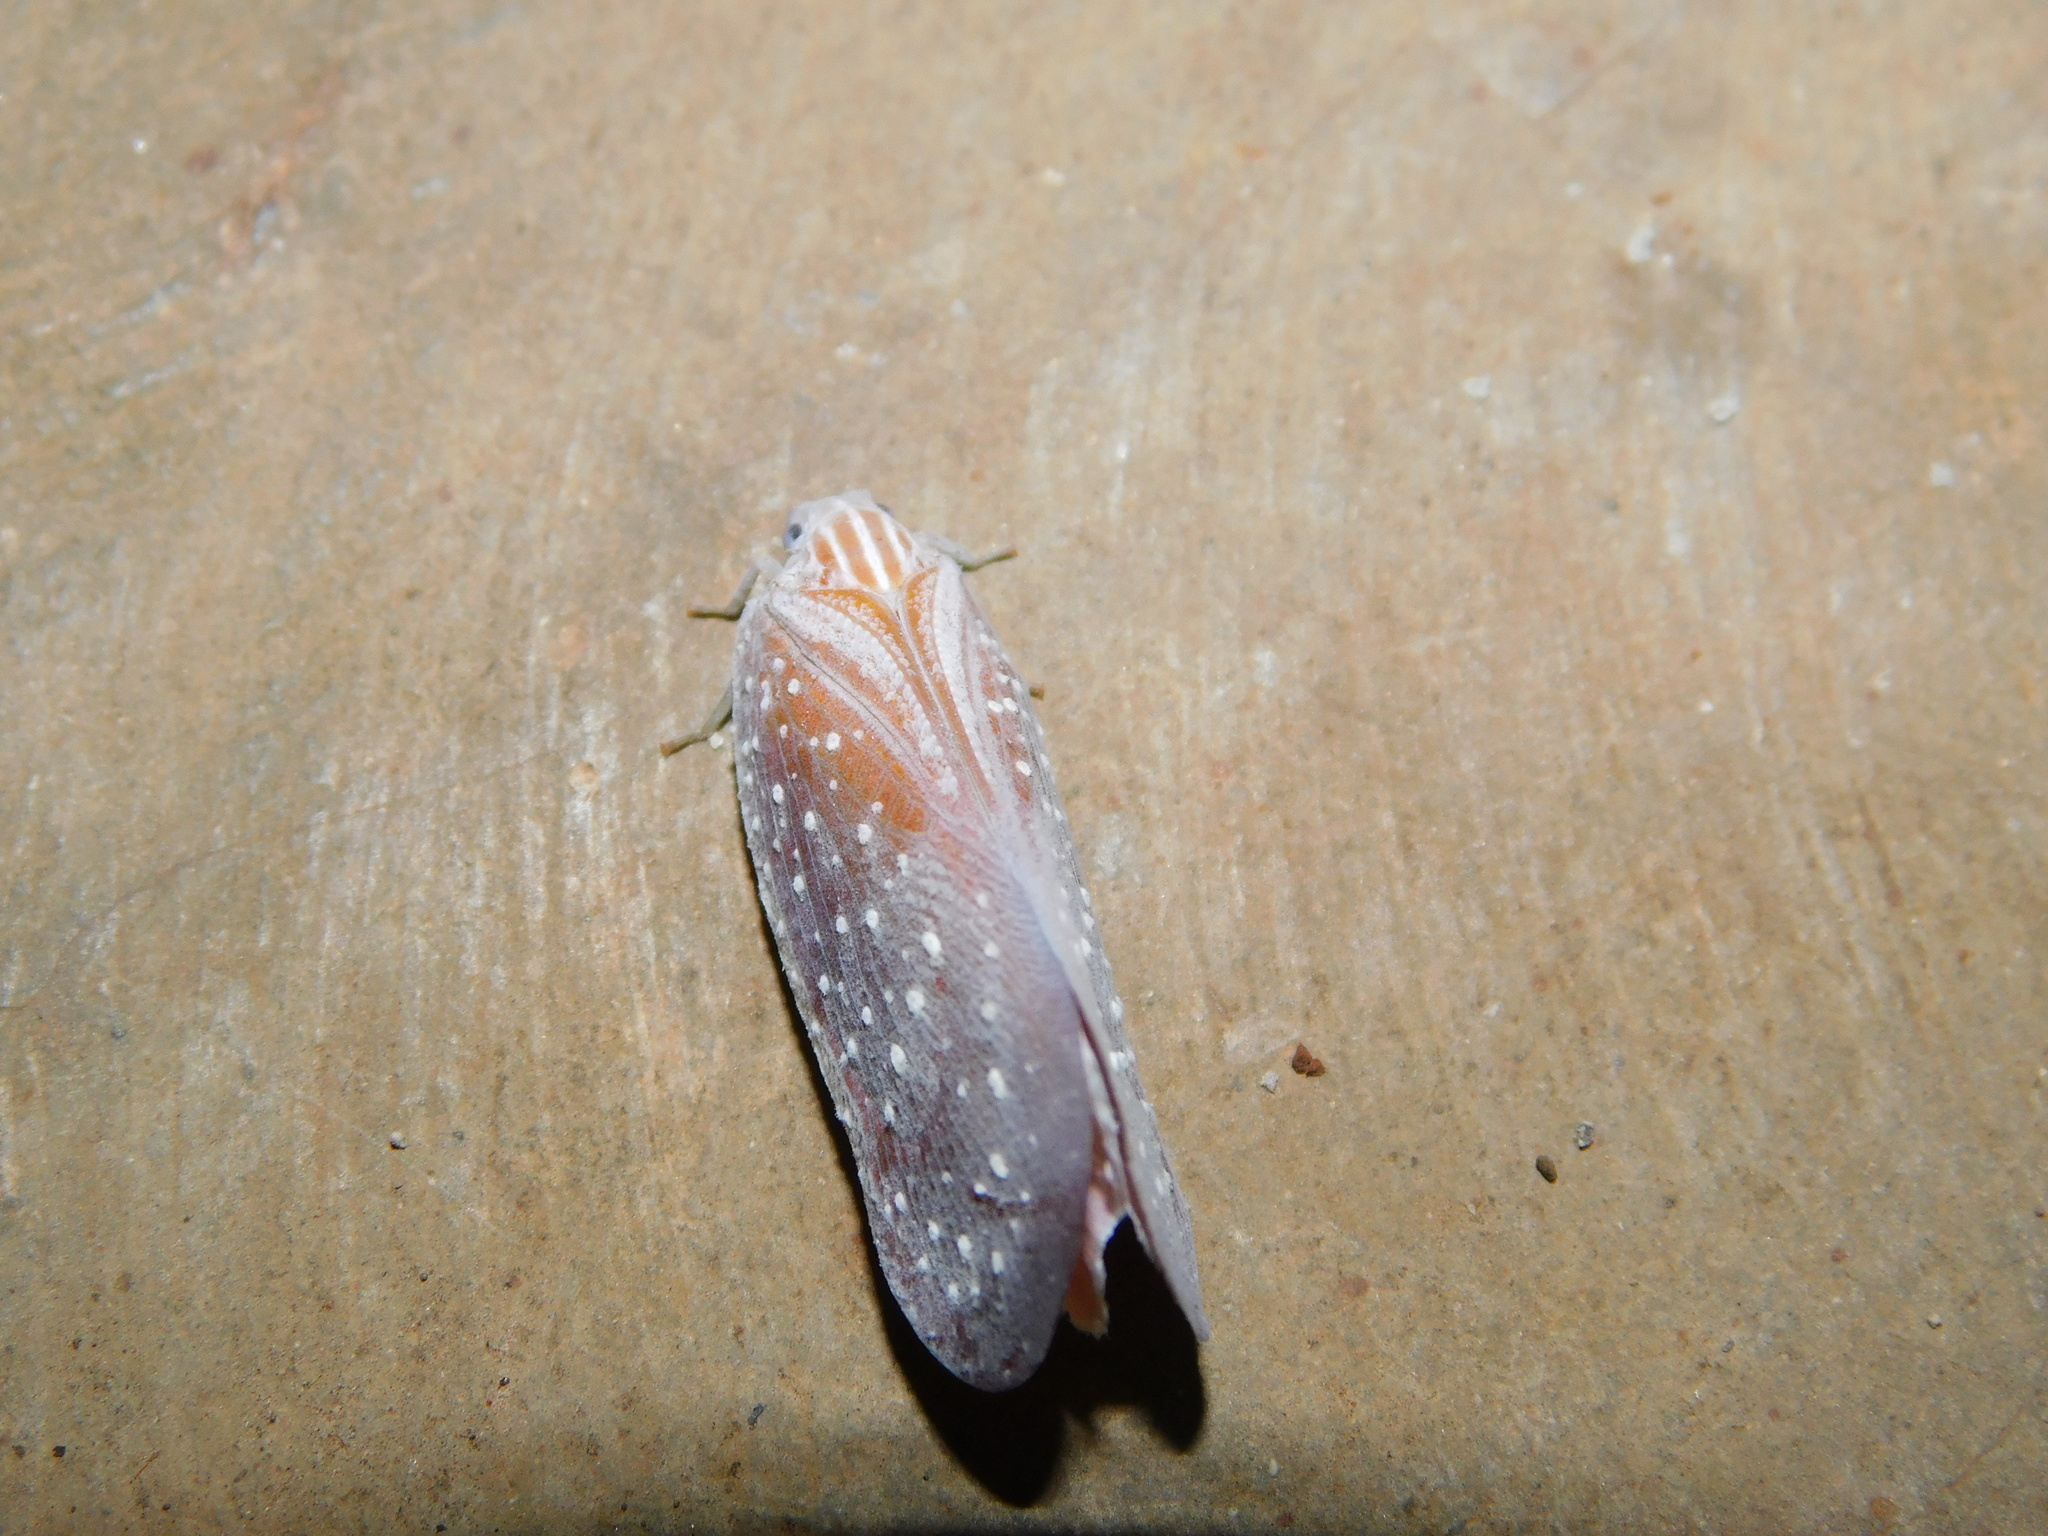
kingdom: Animalia
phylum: Arthropoda
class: Insecta
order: Hemiptera
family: Flatidae
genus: Nephesa
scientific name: Nephesa suffusa
